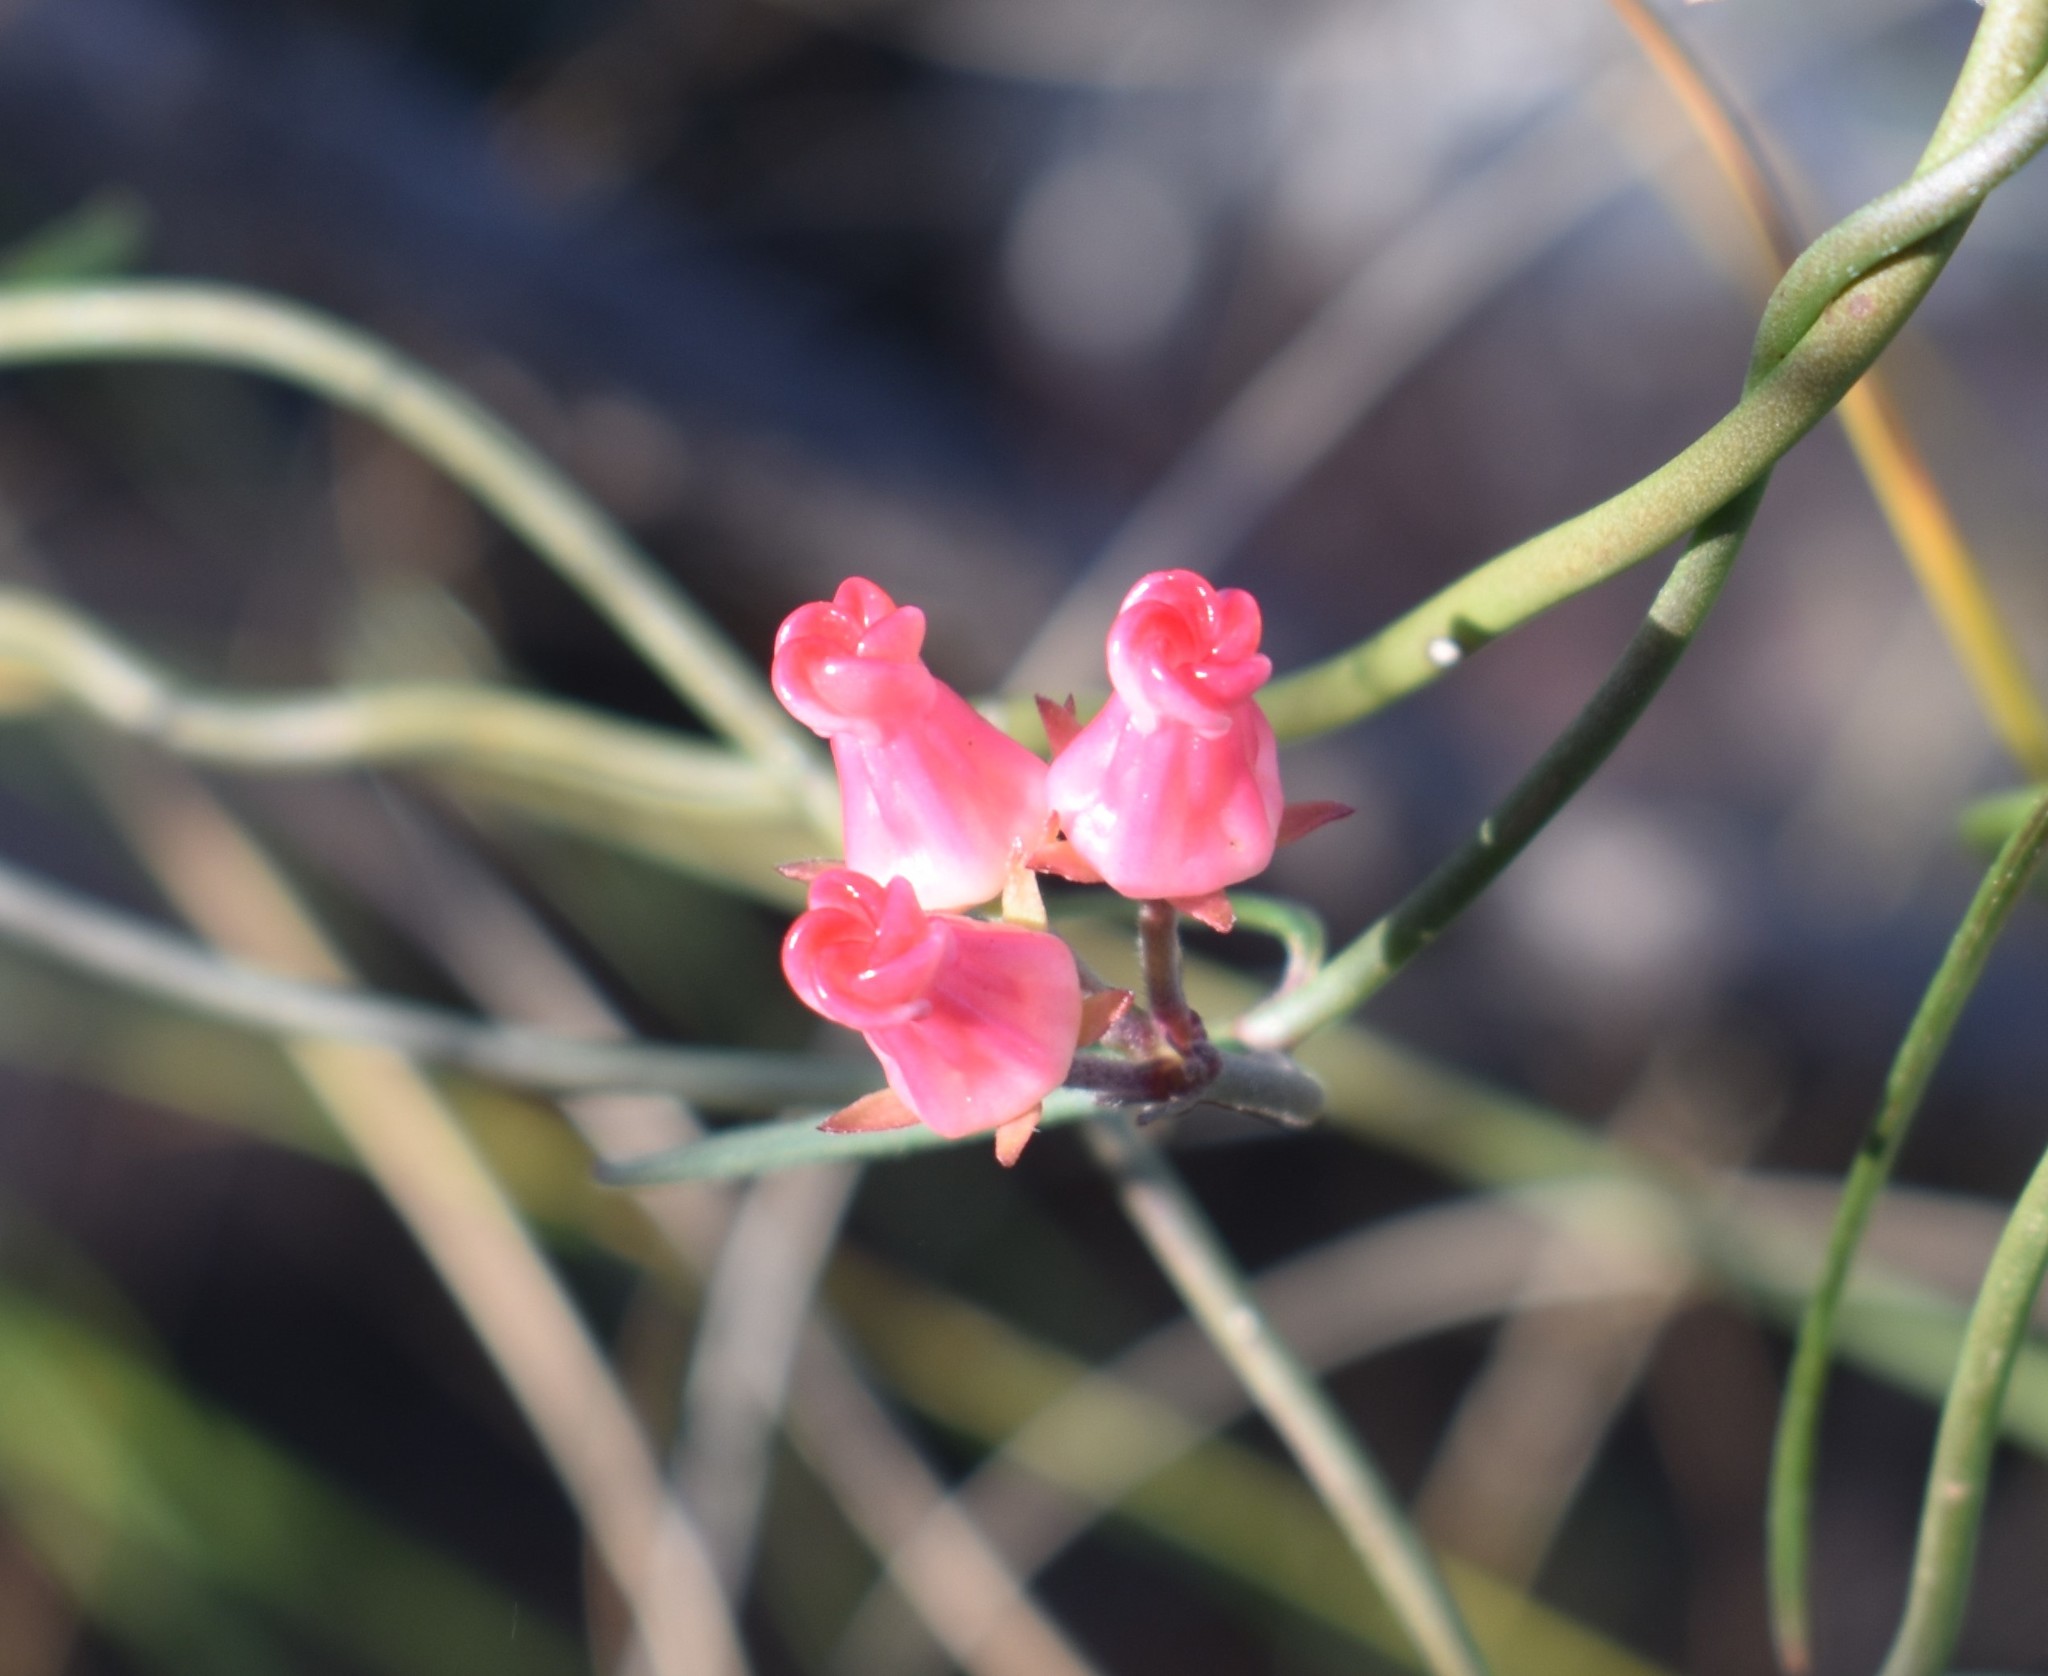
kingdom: Plantae
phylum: Tracheophyta
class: Magnoliopsida
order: Gentianales
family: Apocynaceae
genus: Microloma
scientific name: Microloma tenuifolium
